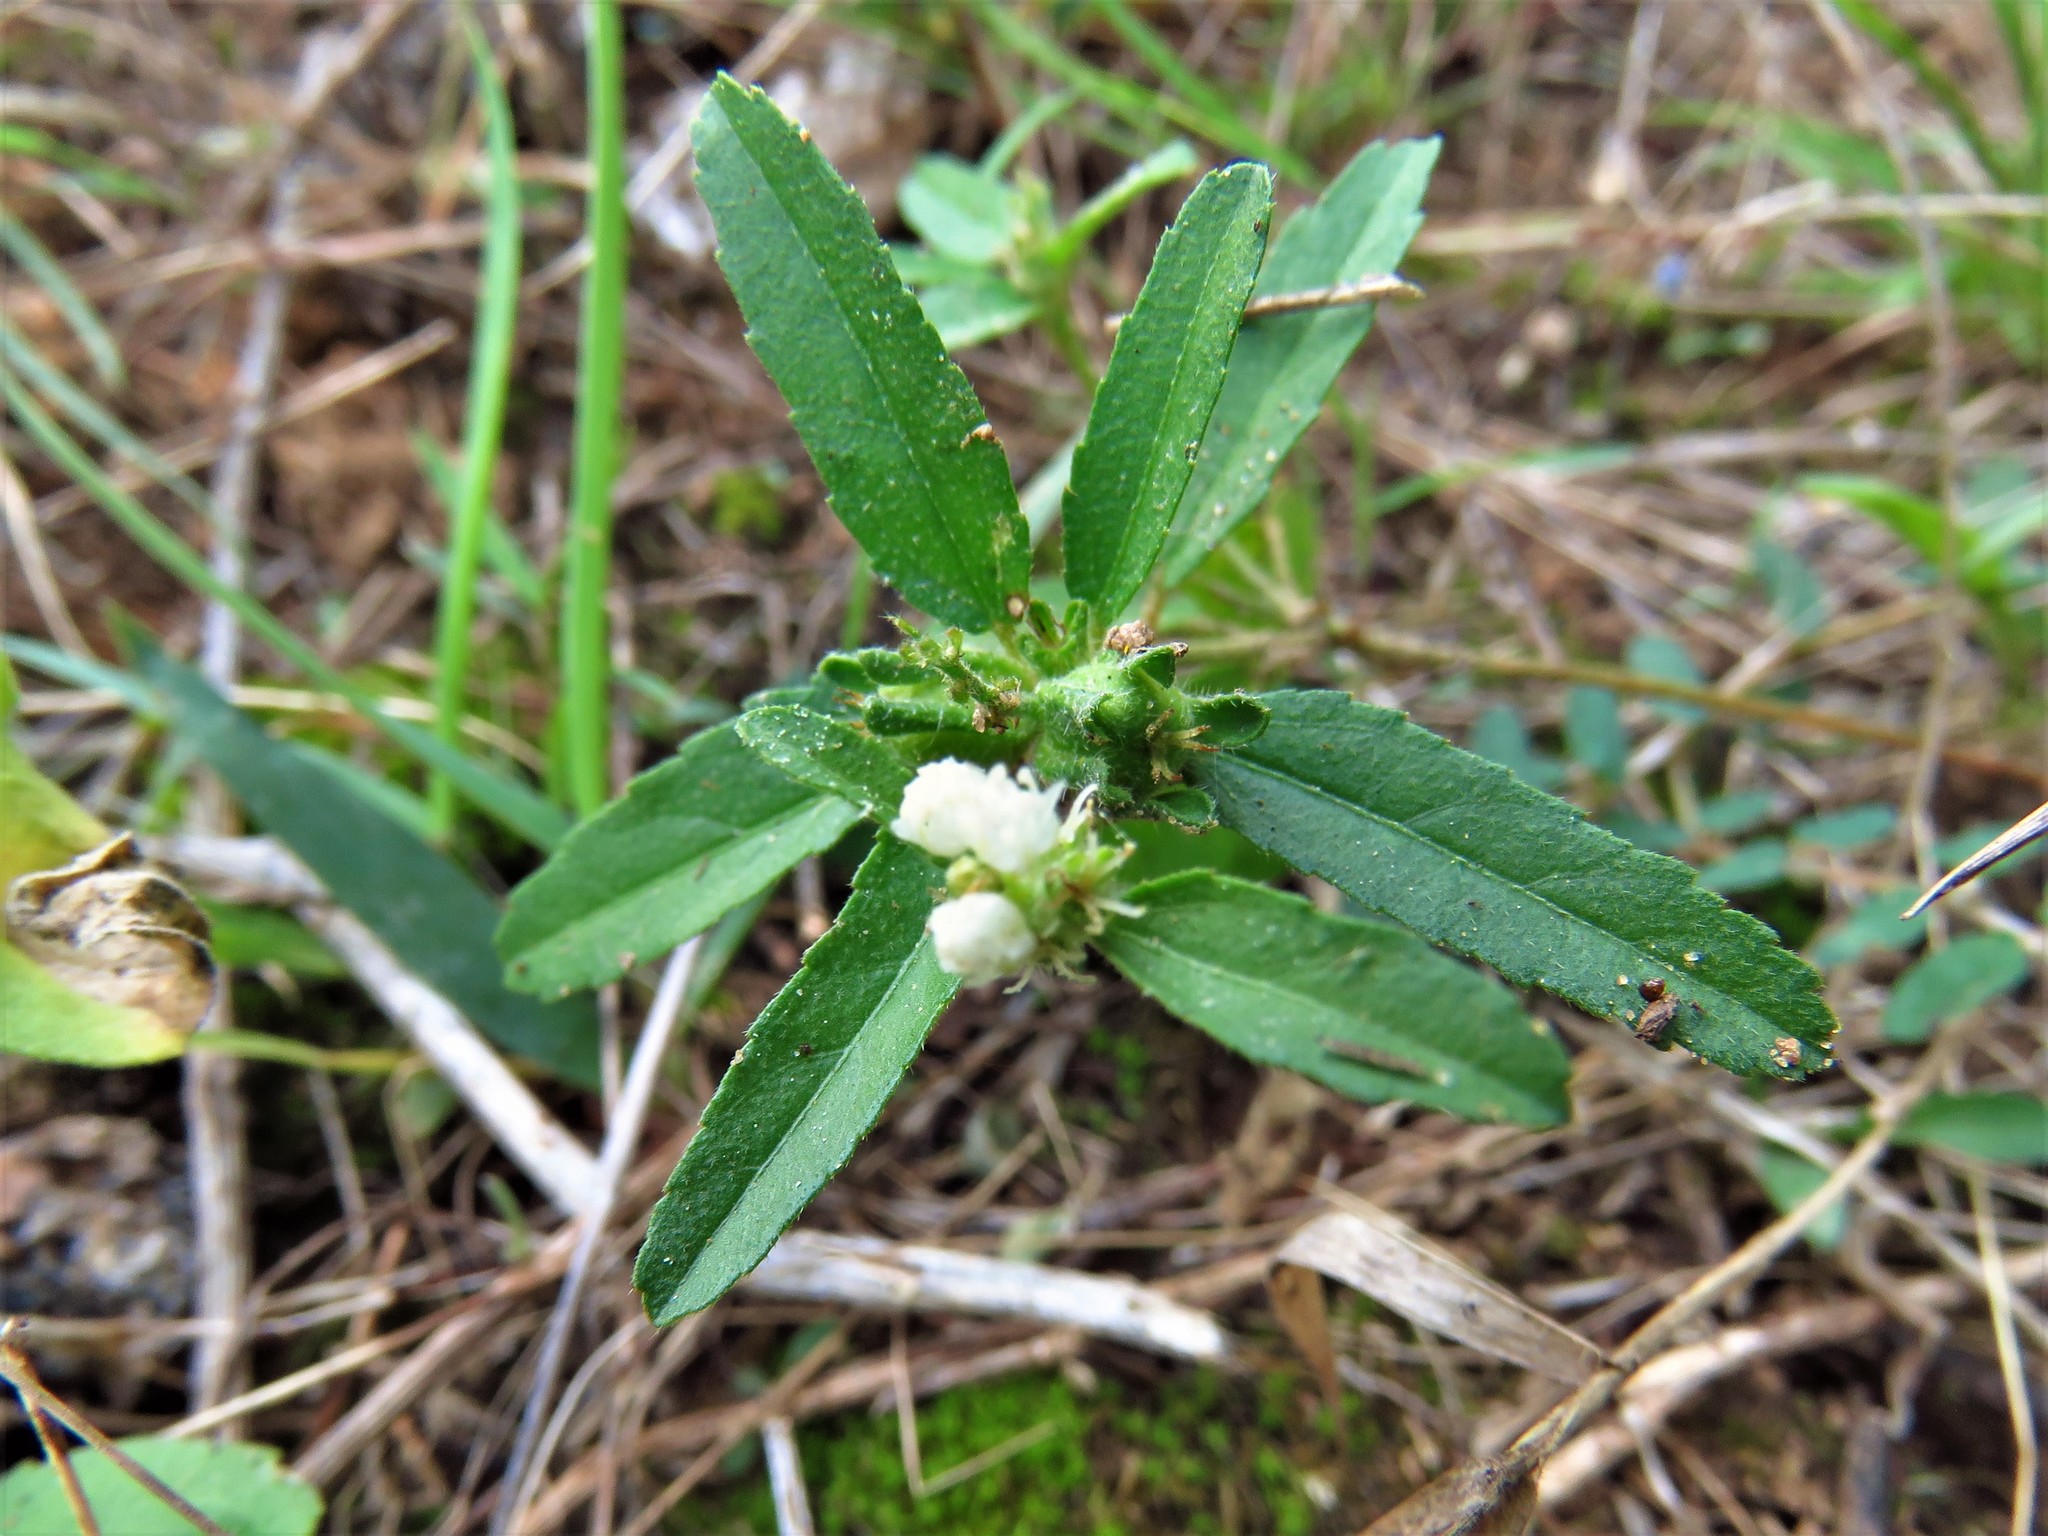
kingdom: Plantae
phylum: Tracheophyta
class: Magnoliopsida
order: Malpighiales
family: Euphorbiaceae
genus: Croton
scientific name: Croton glandulosus
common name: Tropic croton
